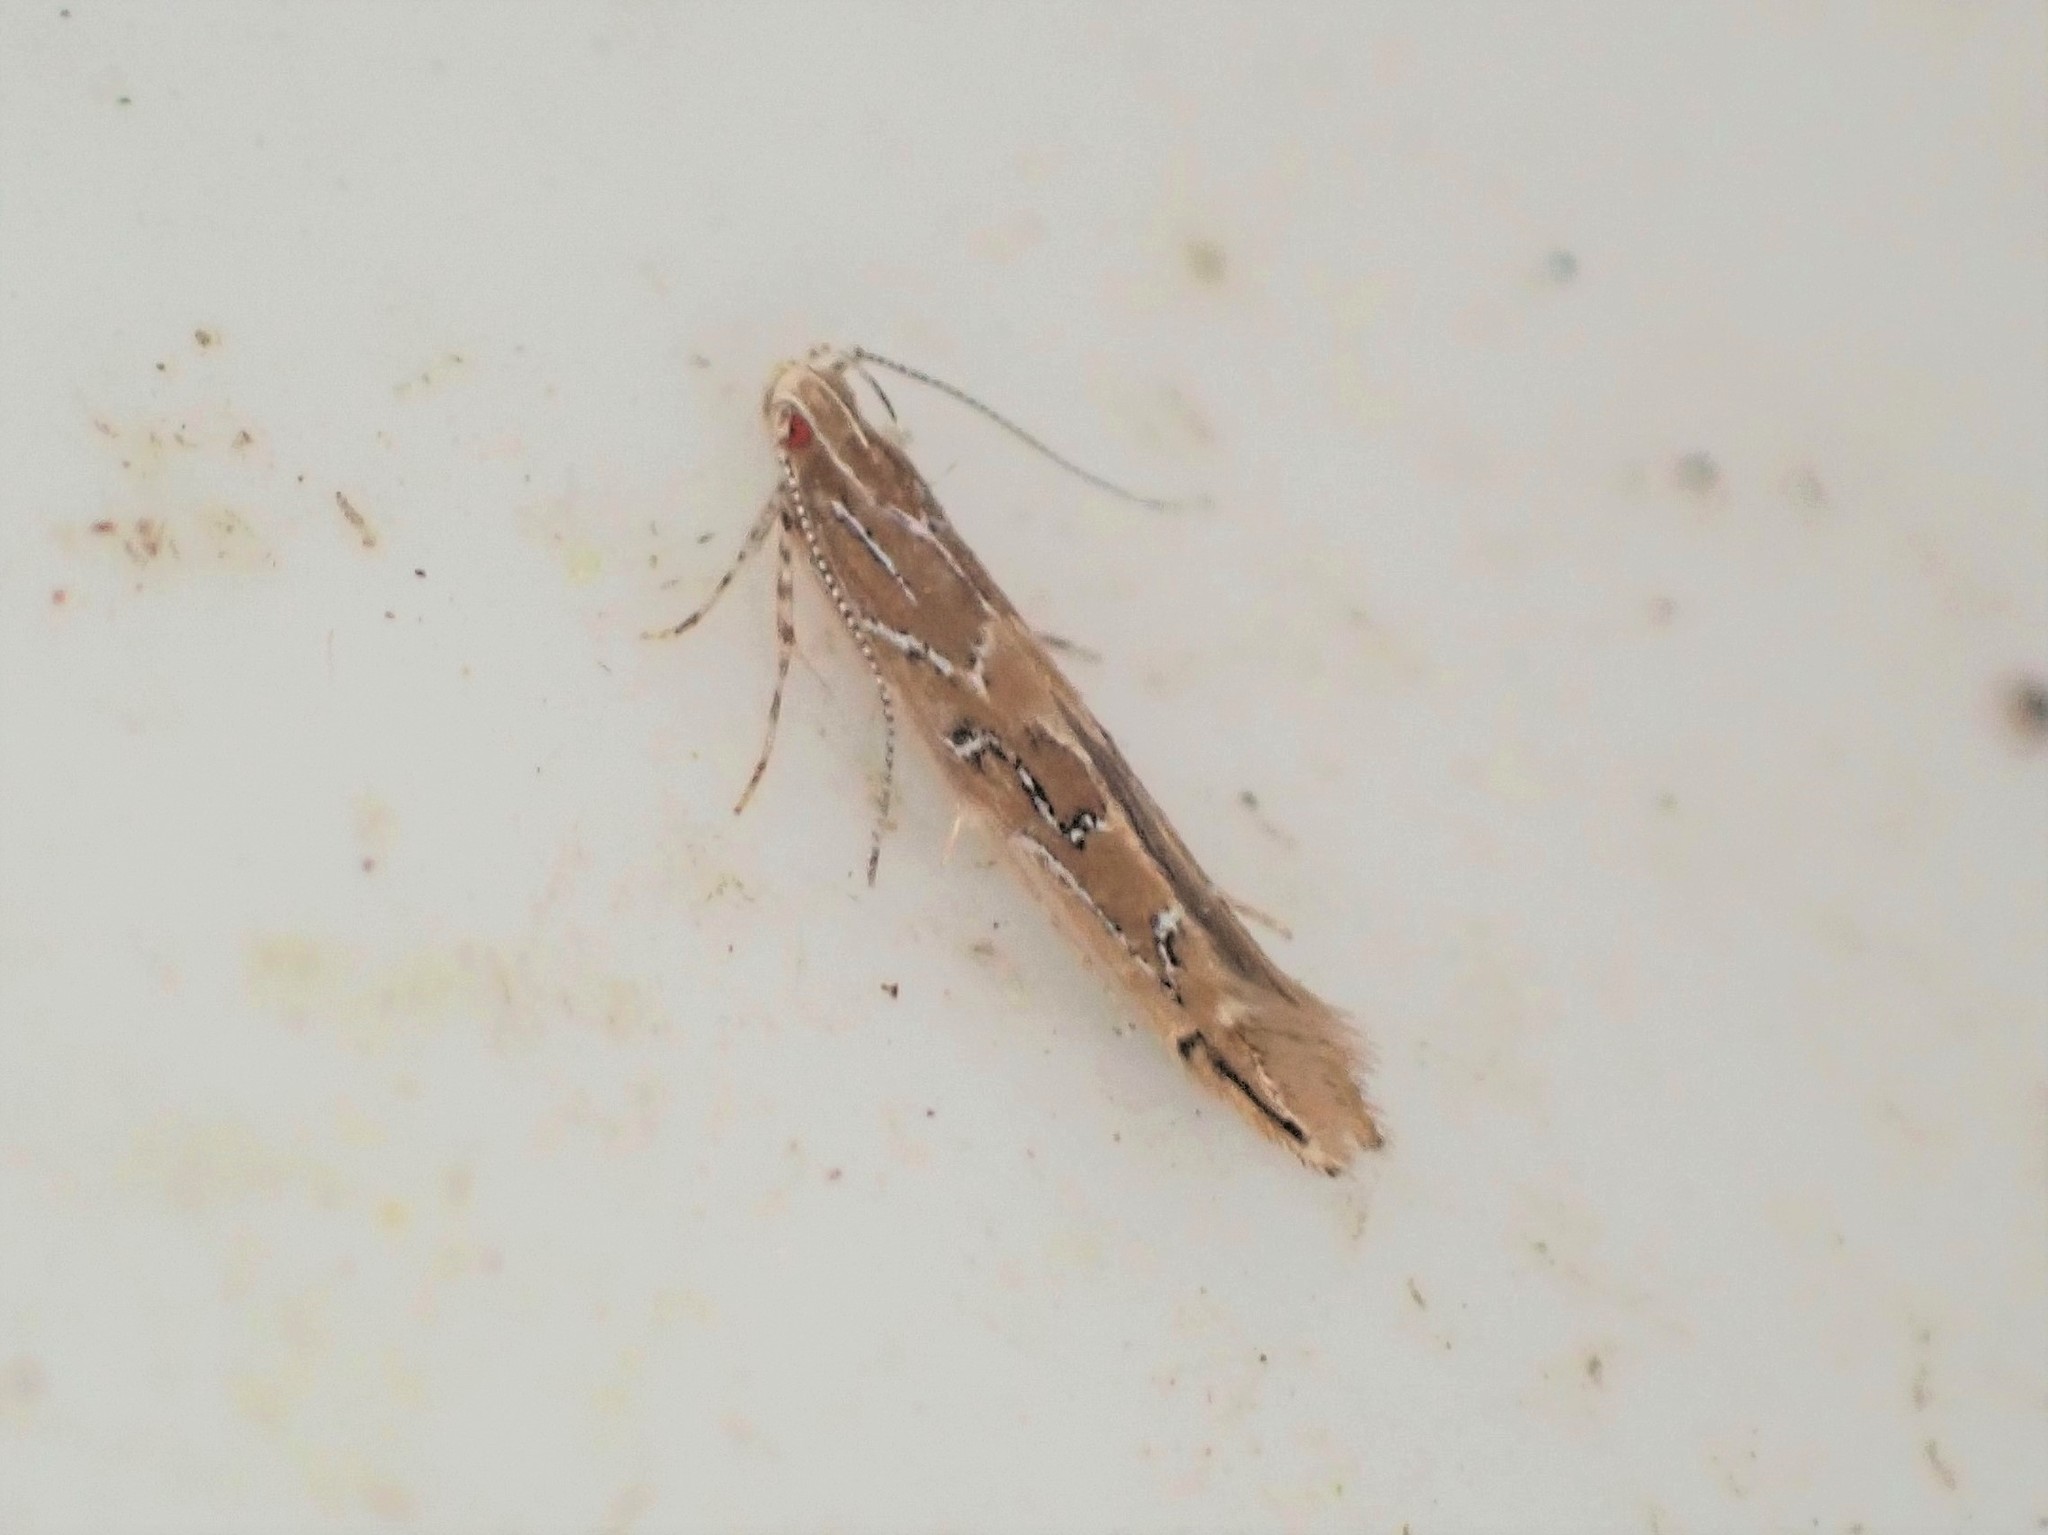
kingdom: Animalia
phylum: Arthropoda
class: Insecta
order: Lepidoptera
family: Cosmopterigidae
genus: Pyroderces
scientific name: Pyroderces apparitella
